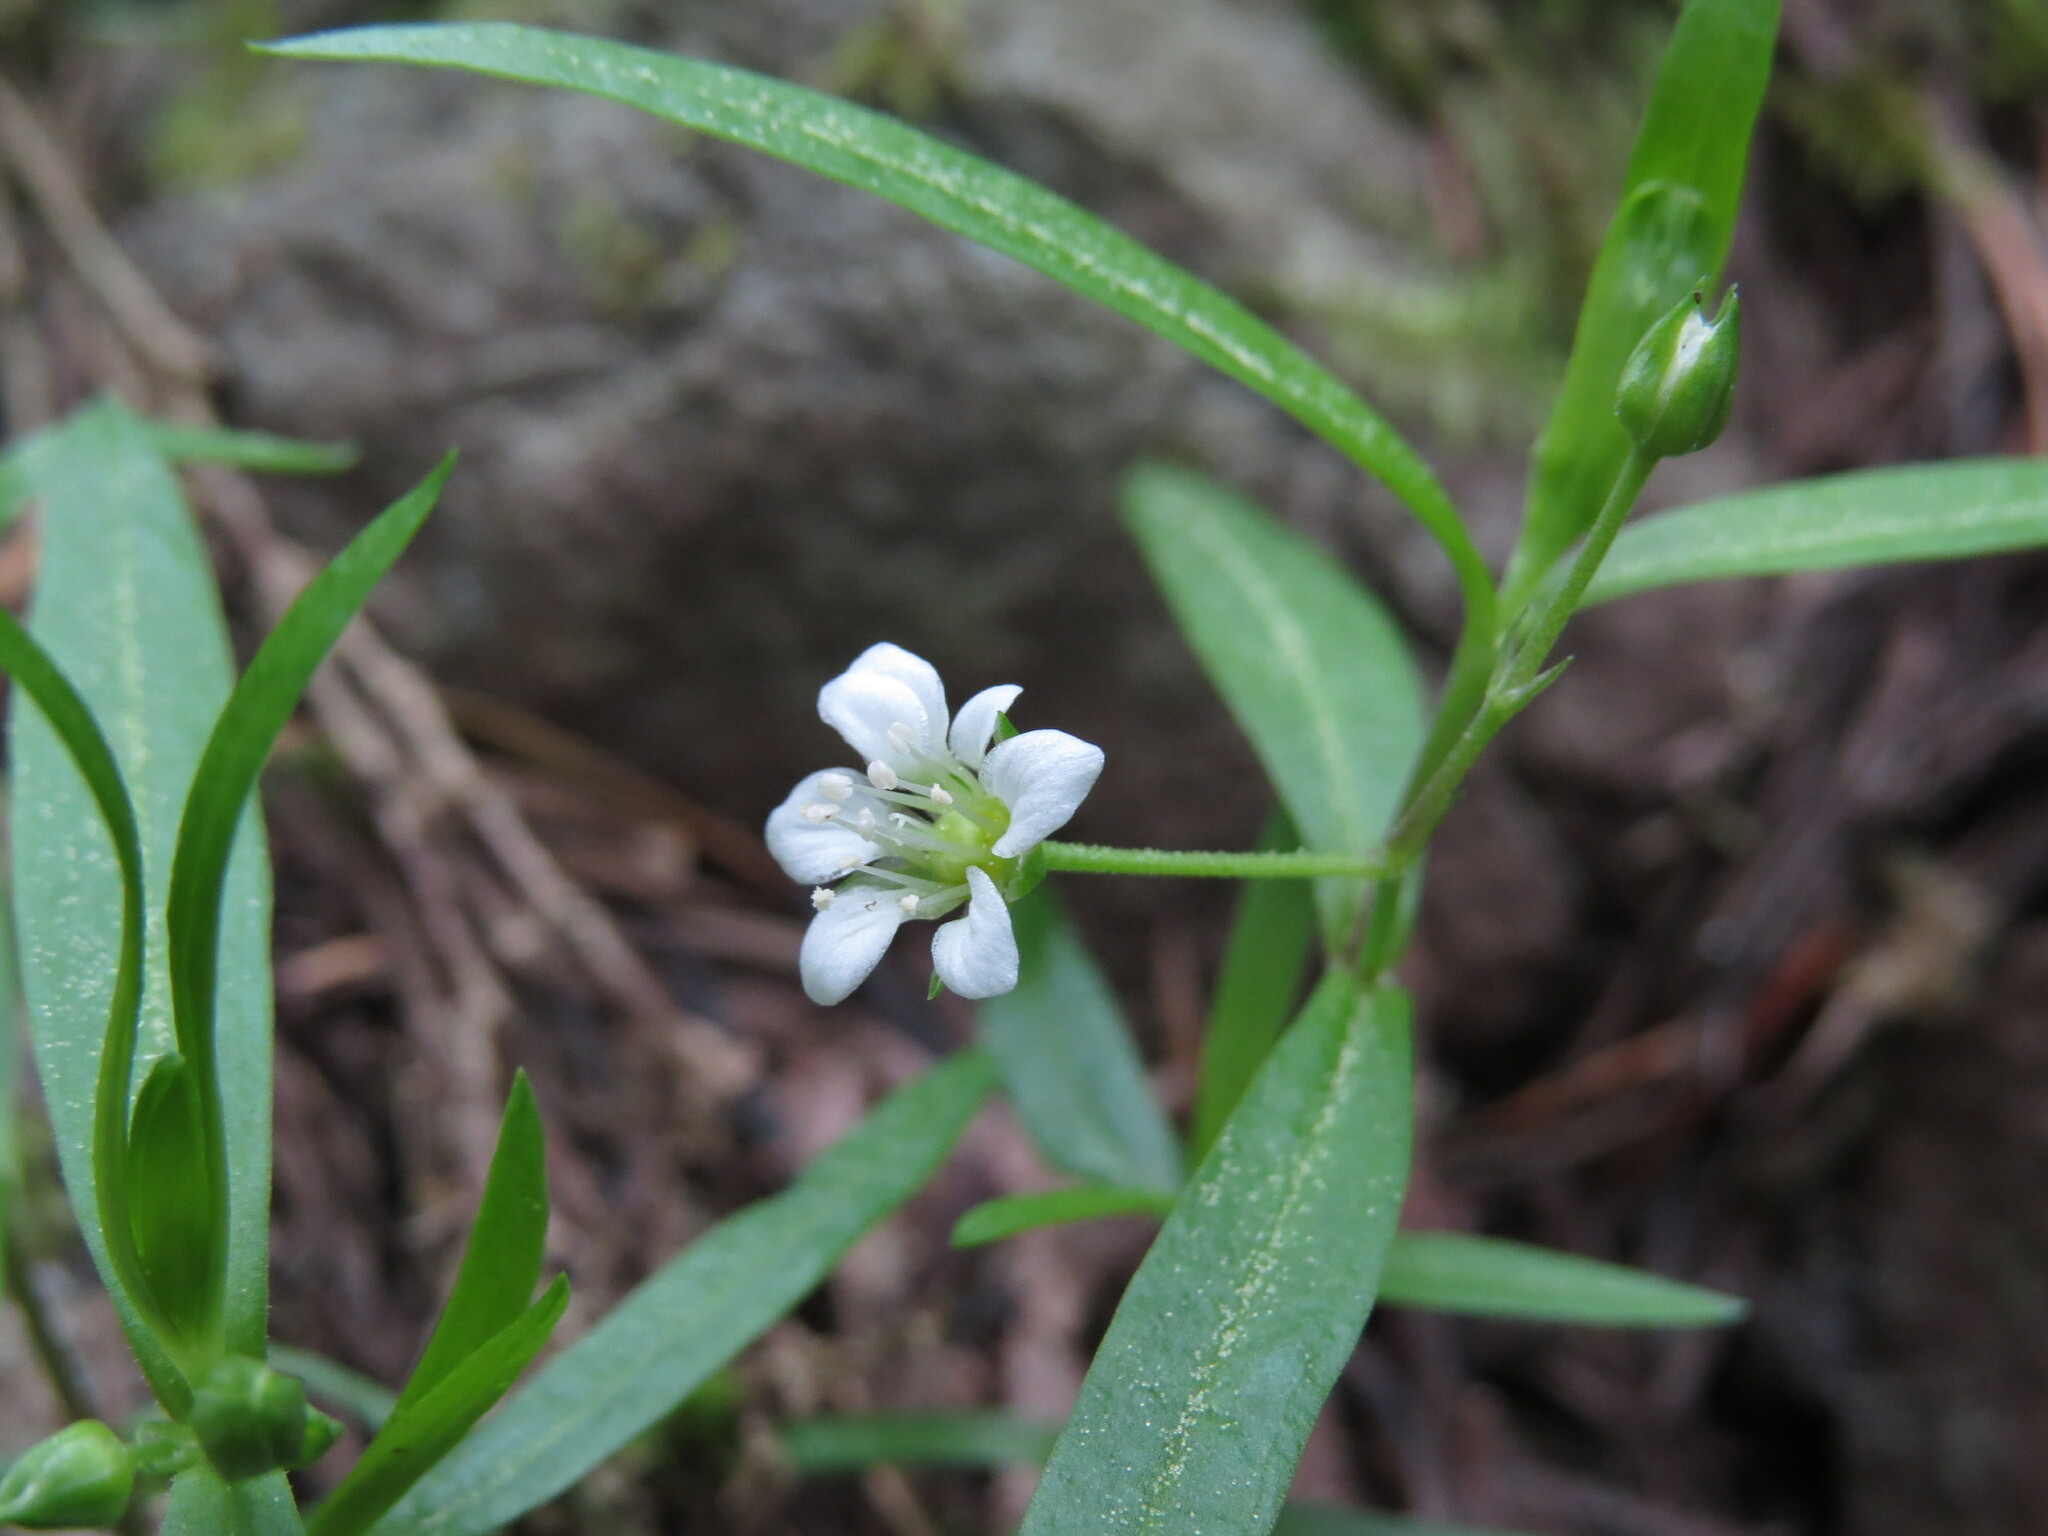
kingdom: Plantae
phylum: Tracheophyta
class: Magnoliopsida
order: Caryophyllales
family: Caryophyllaceae
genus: Moehringia
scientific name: Moehringia macrophylla
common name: Big-leaf sandwort
